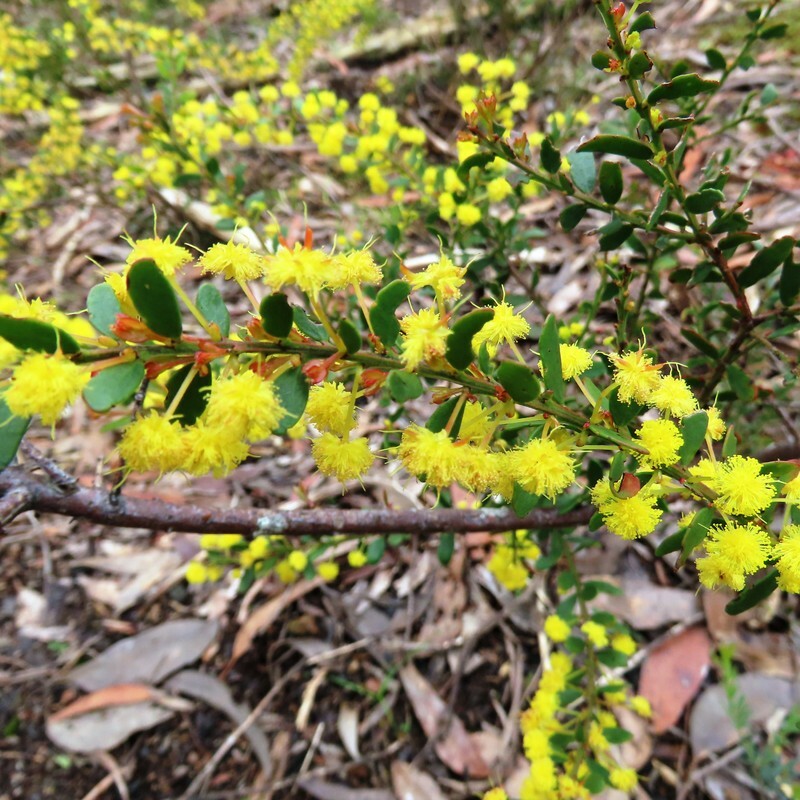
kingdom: Plantae
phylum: Tracheophyta
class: Magnoliopsida
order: Fabales
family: Fabaceae
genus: Acacia
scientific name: Acacia acinacea
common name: Gold-dust acacia
